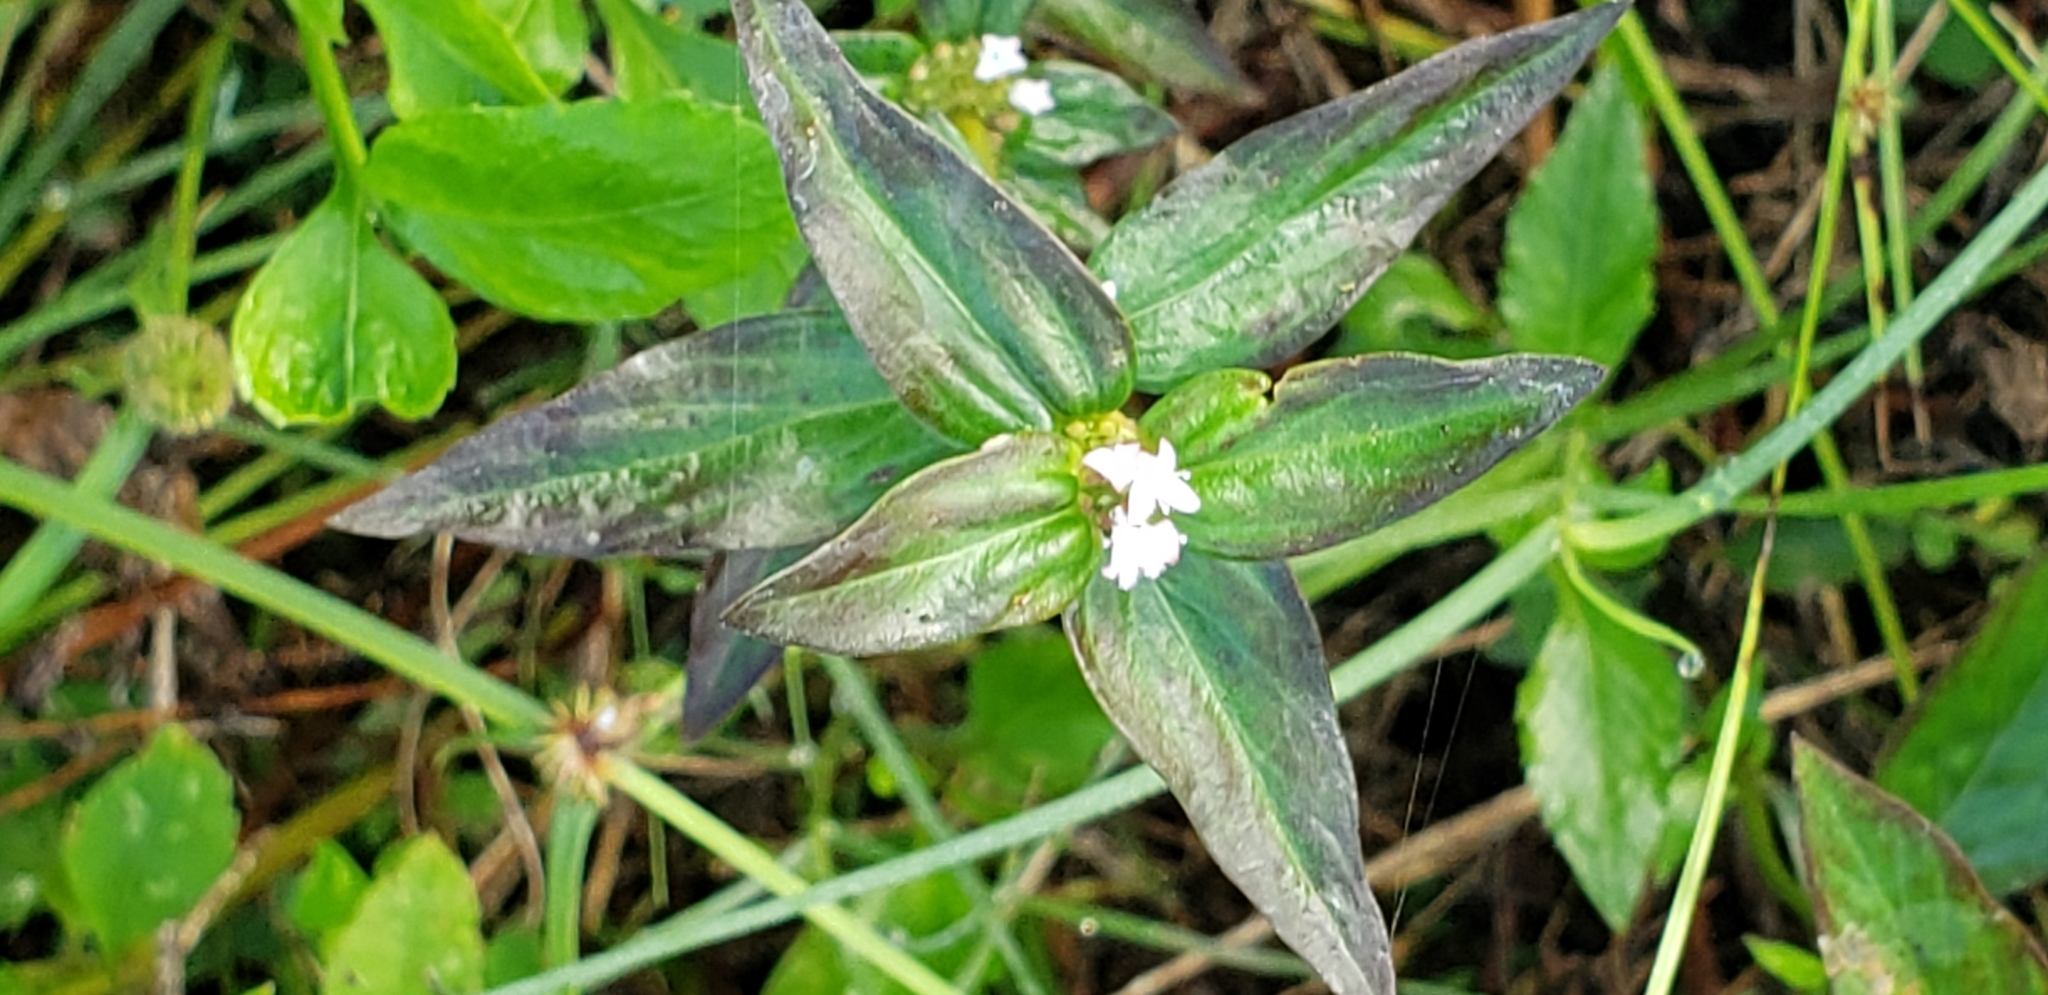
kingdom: Plantae
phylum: Tracheophyta
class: Magnoliopsida
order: Gentianales
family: Rubiaceae
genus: Spermacoce
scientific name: Spermacoce remota
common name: Woodland false buttonweed
